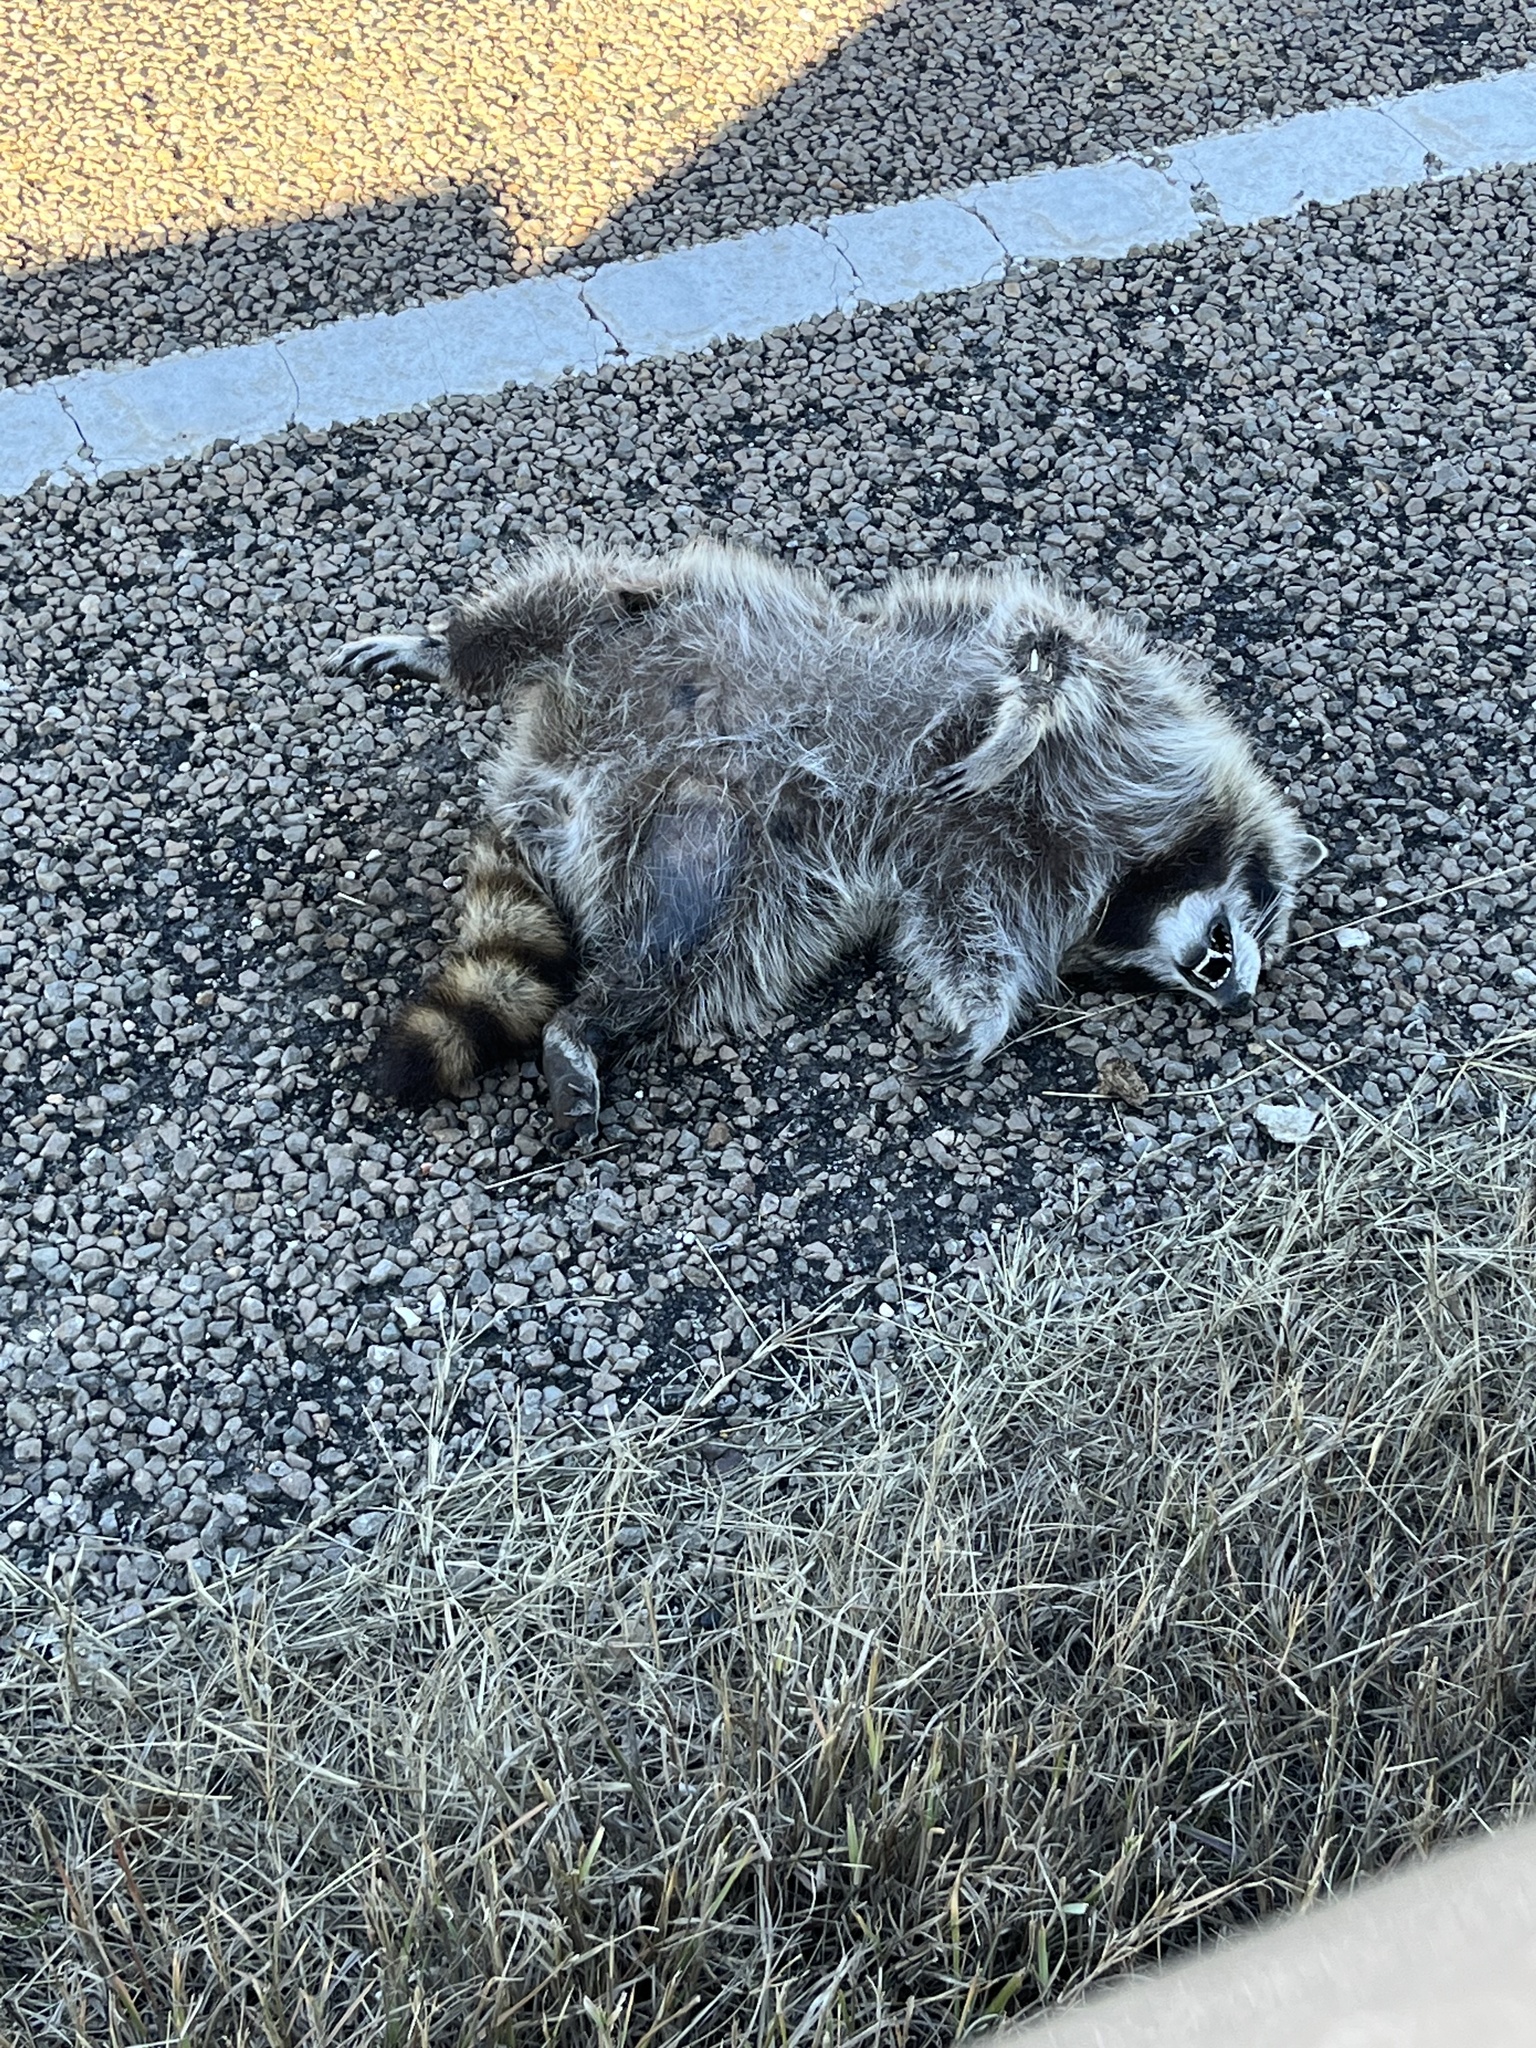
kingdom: Animalia
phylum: Chordata
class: Mammalia
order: Carnivora
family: Procyonidae
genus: Procyon
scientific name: Procyon lotor
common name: Raccoon
